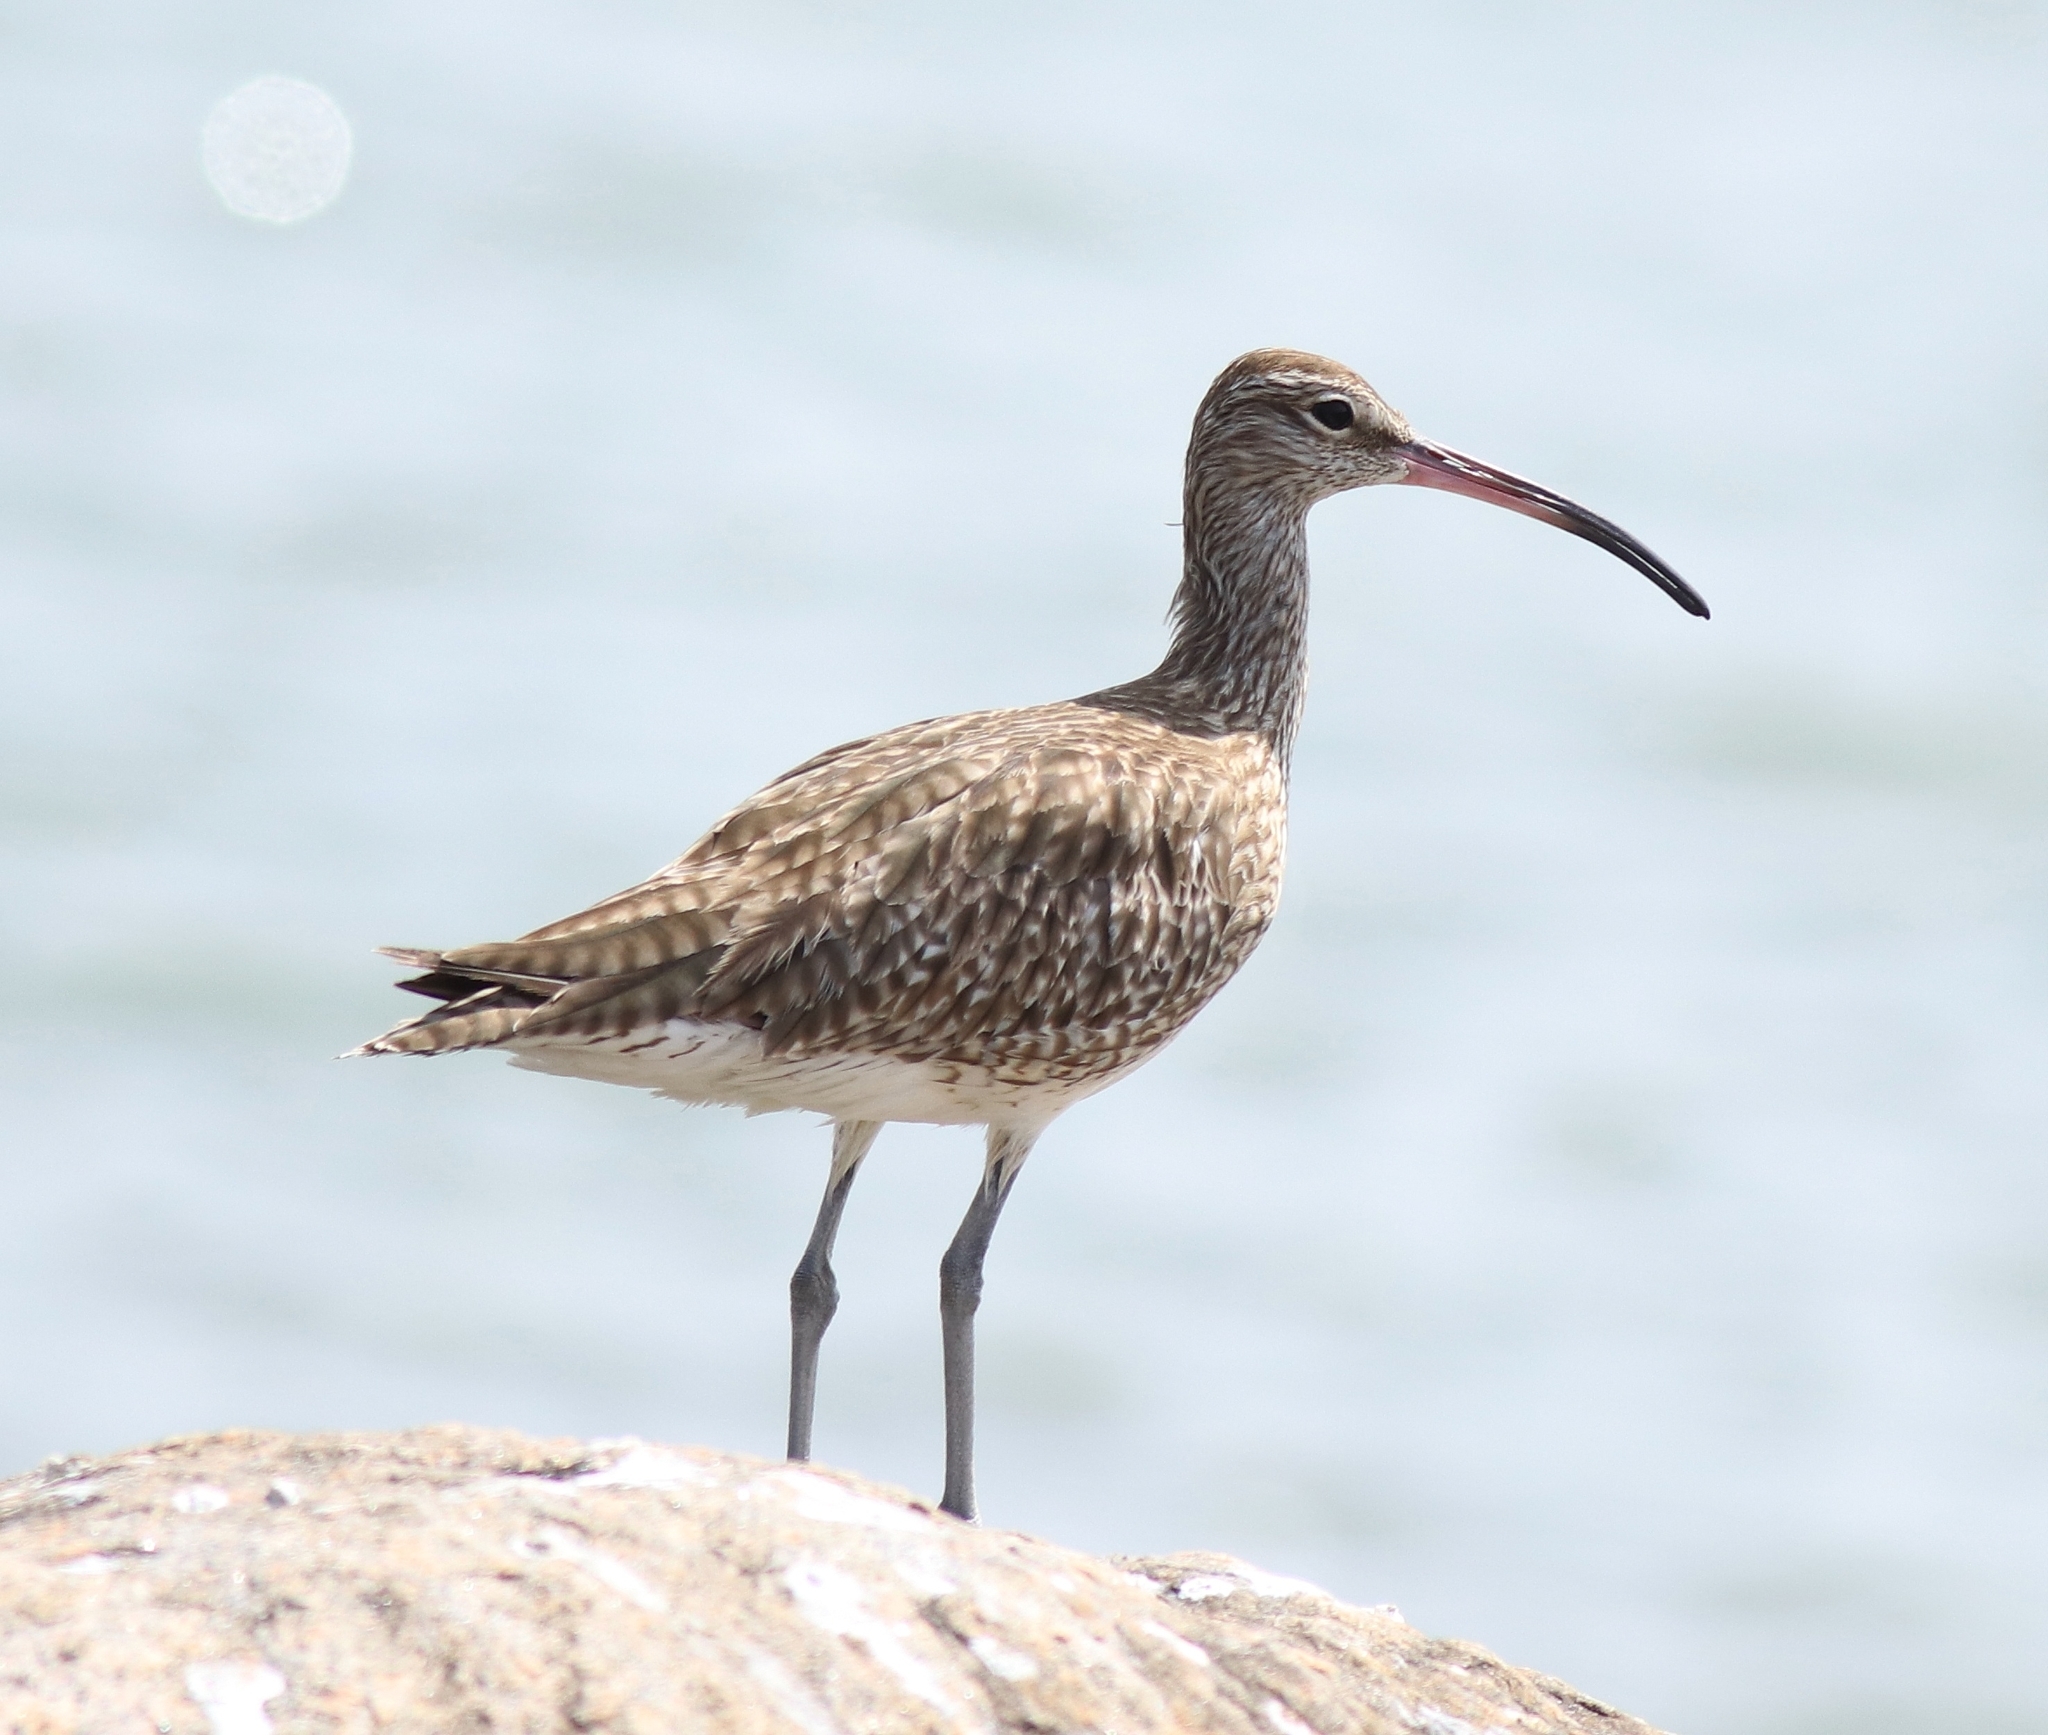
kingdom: Animalia
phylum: Chordata
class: Aves
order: Charadriiformes
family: Scolopacidae
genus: Numenius
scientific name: Numenius phaeopus
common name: Whimbrel
